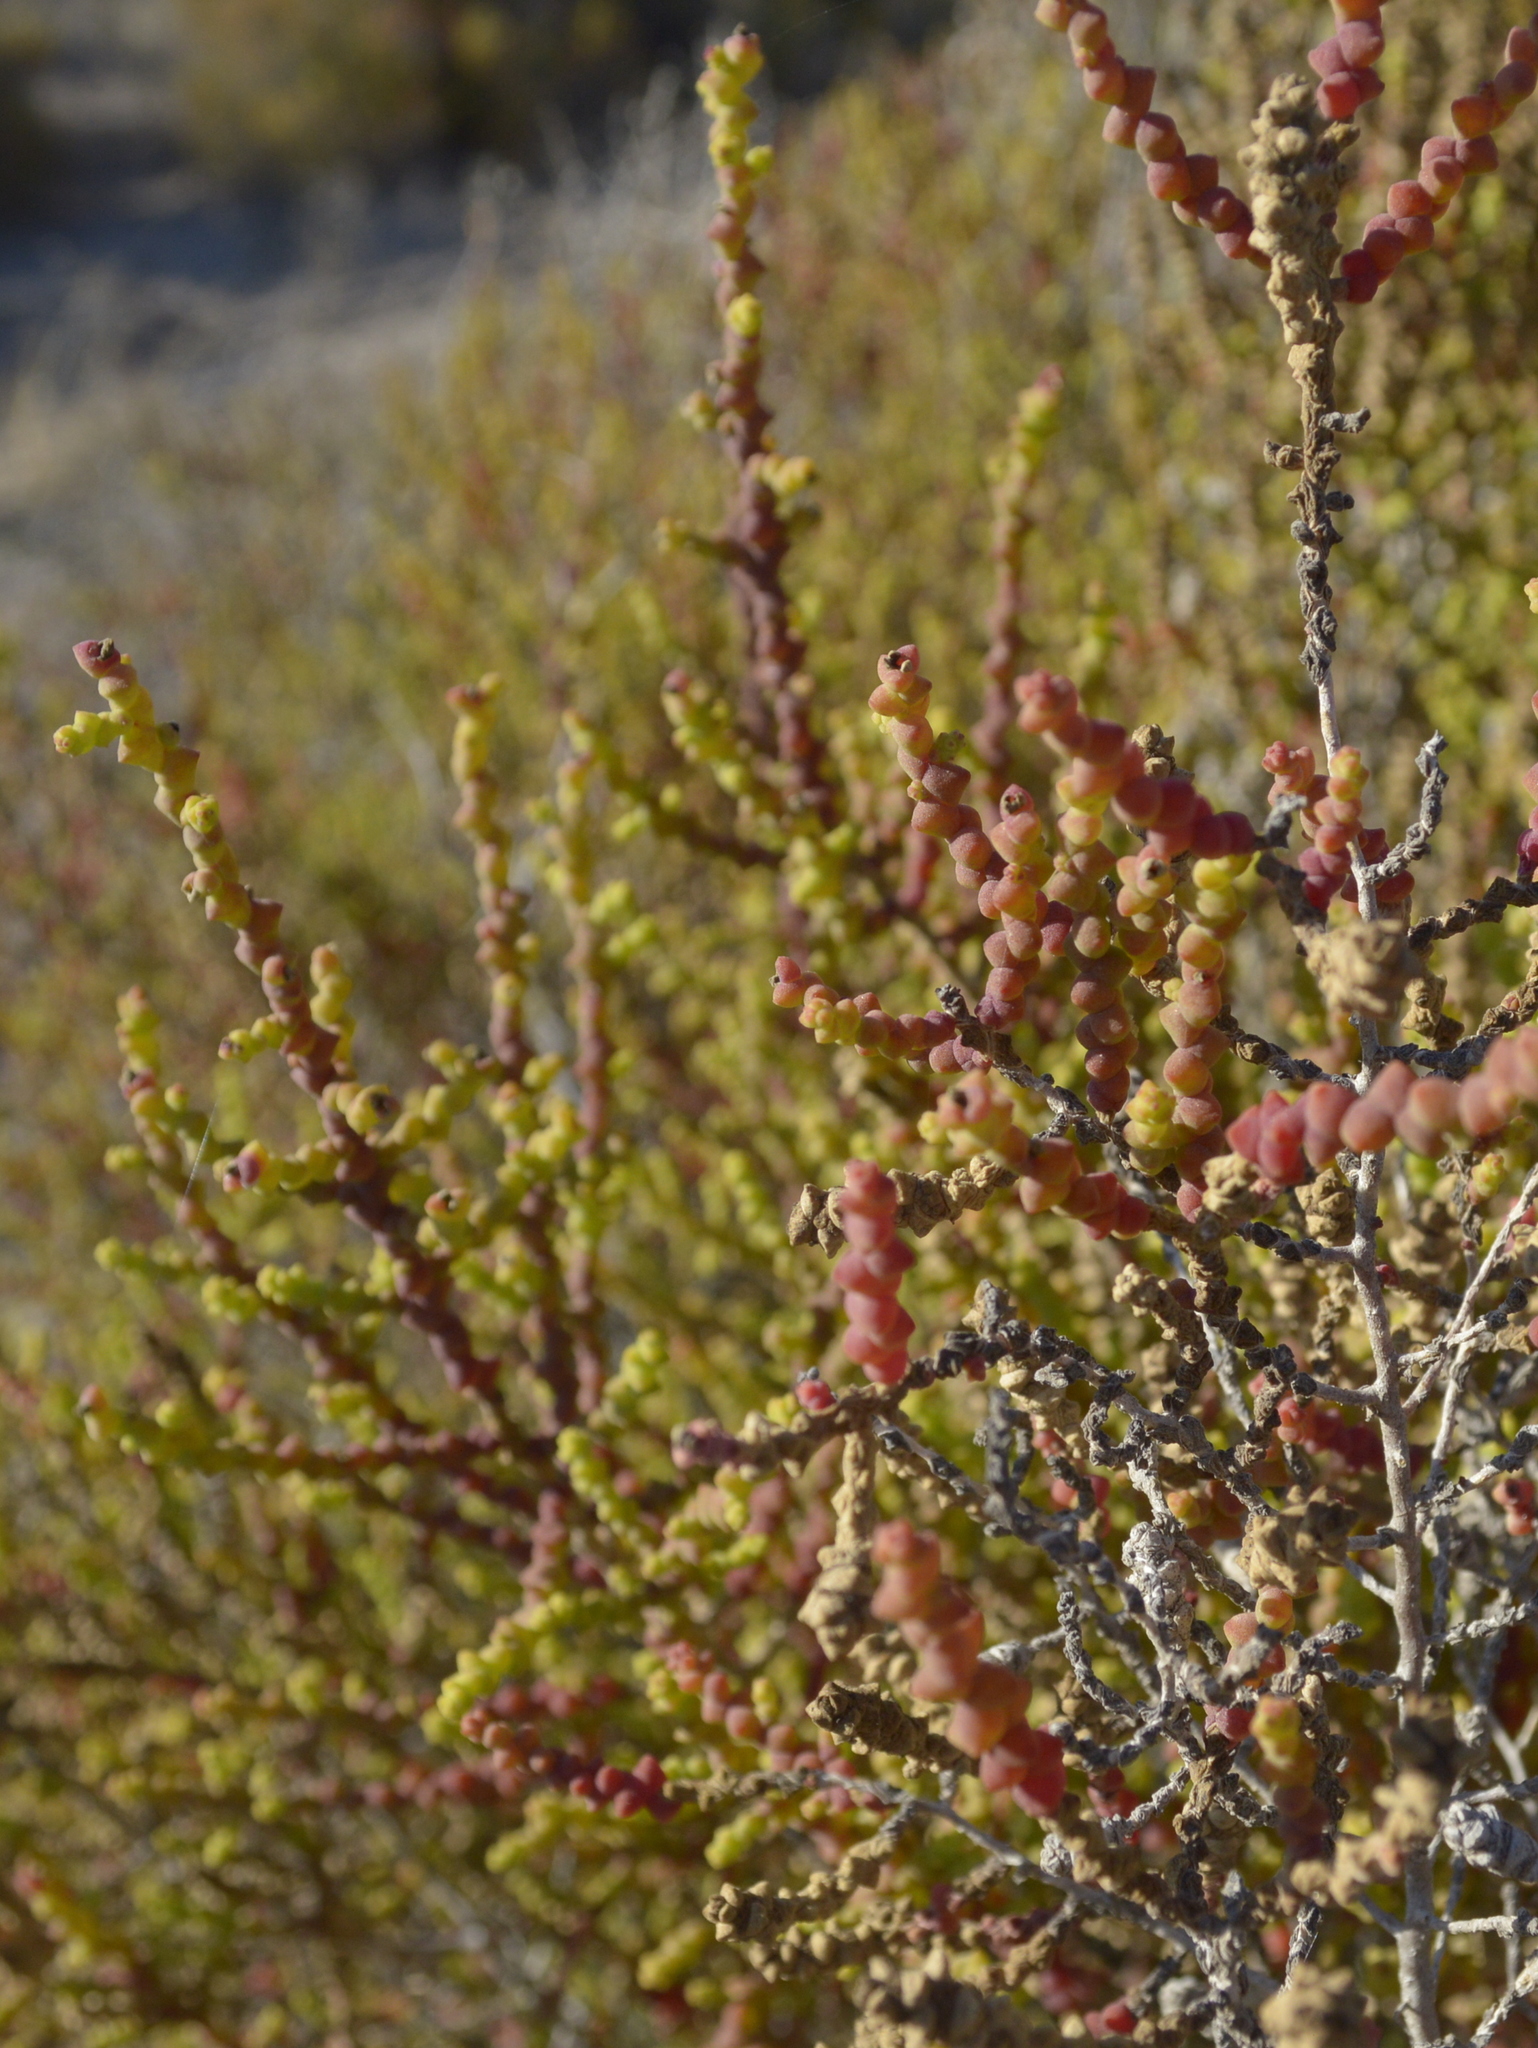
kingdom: Plantae
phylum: Tracheophyta
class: Magnoliopsida
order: Caryophyllales
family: Amaranthaceae
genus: Allenrolfea
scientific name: Allenrolfea patagonica
